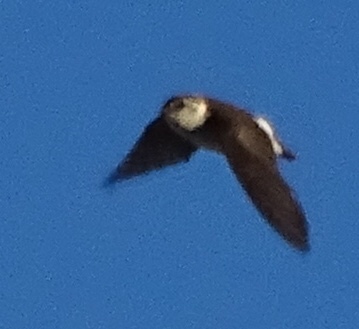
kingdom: Animalia
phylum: Chordata
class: Aves
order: Passeriformes
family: Hirundinidae
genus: Tachycineta
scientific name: Tachycineta thalassina
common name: Violet-green swallow
